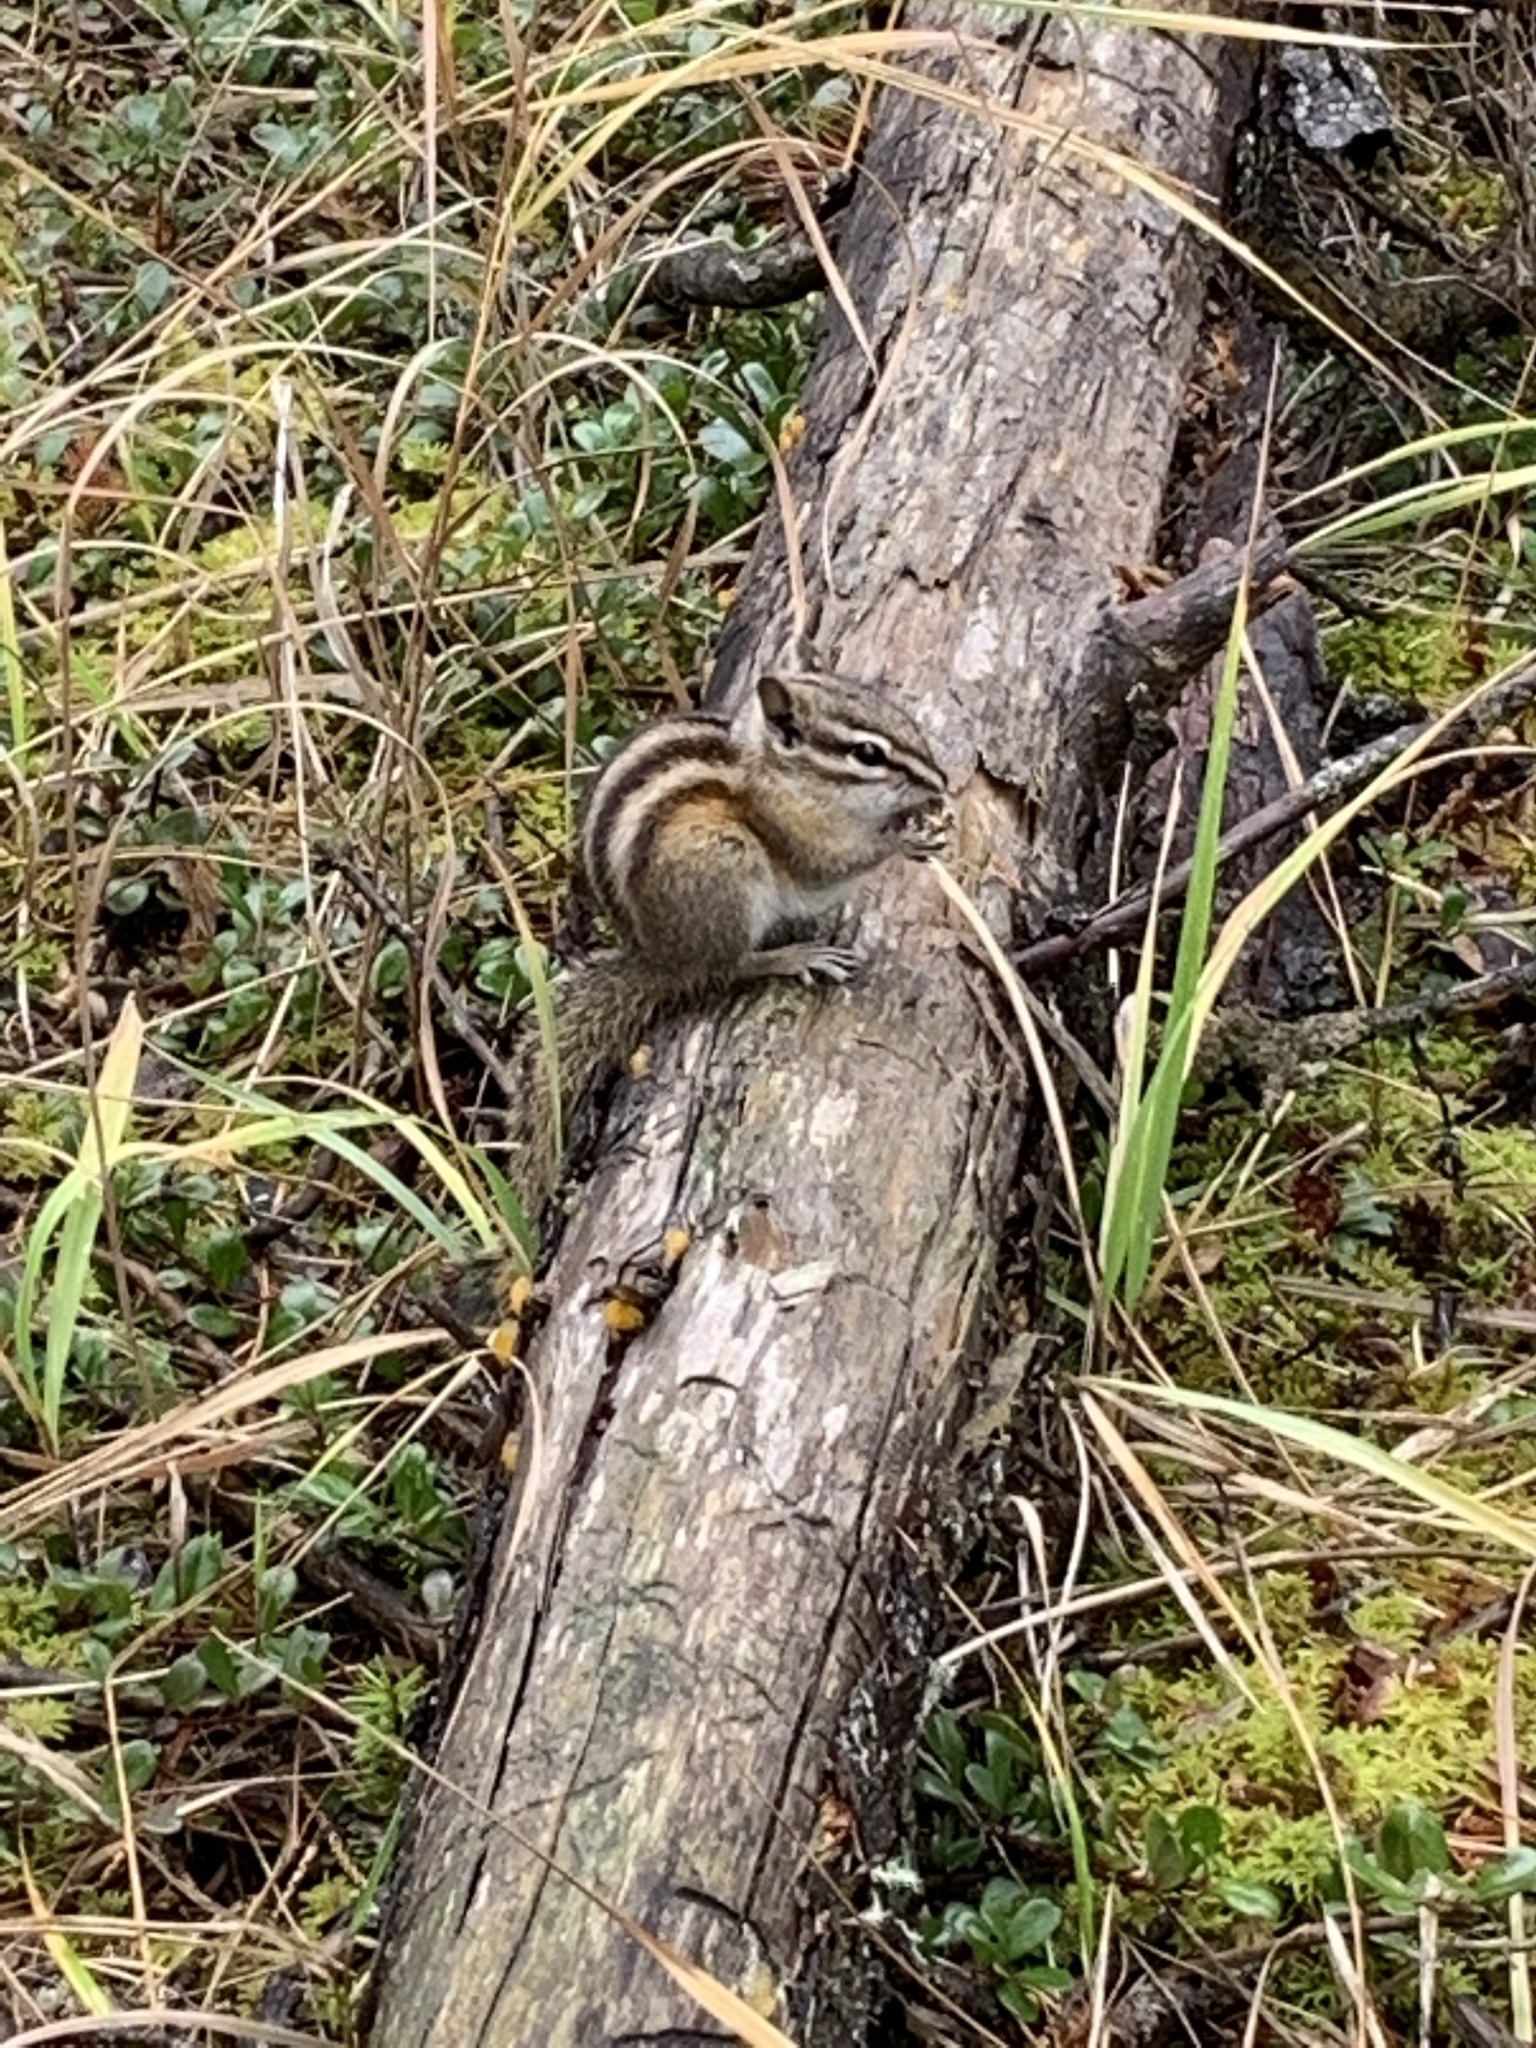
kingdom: Animalia
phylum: Chordata
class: Mammalia
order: Rodentia
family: Sciuridae
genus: Tamias
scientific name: Tamias minimus
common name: Least chipmunk
